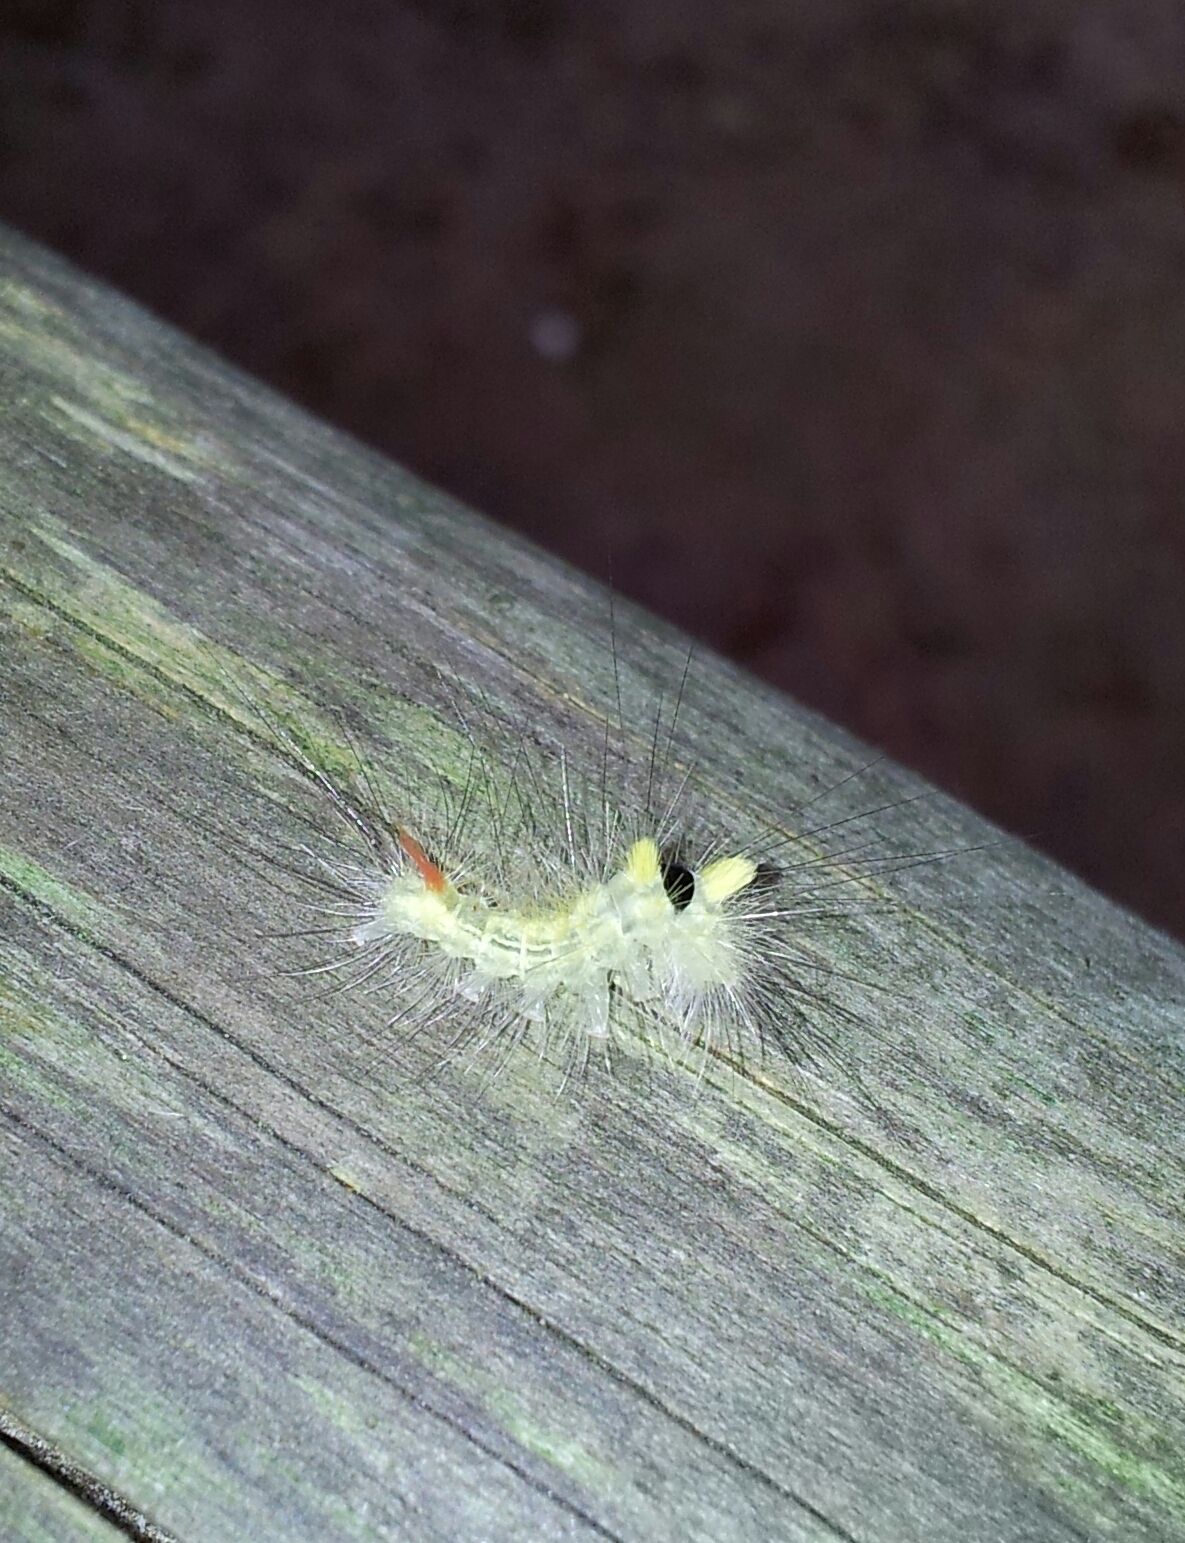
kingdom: Animalia
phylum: Arthropoda
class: Insecta
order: Lepidoptera
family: Erebidae
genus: Calliteara
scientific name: Calliteara pudibunda
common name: Pale tussock
